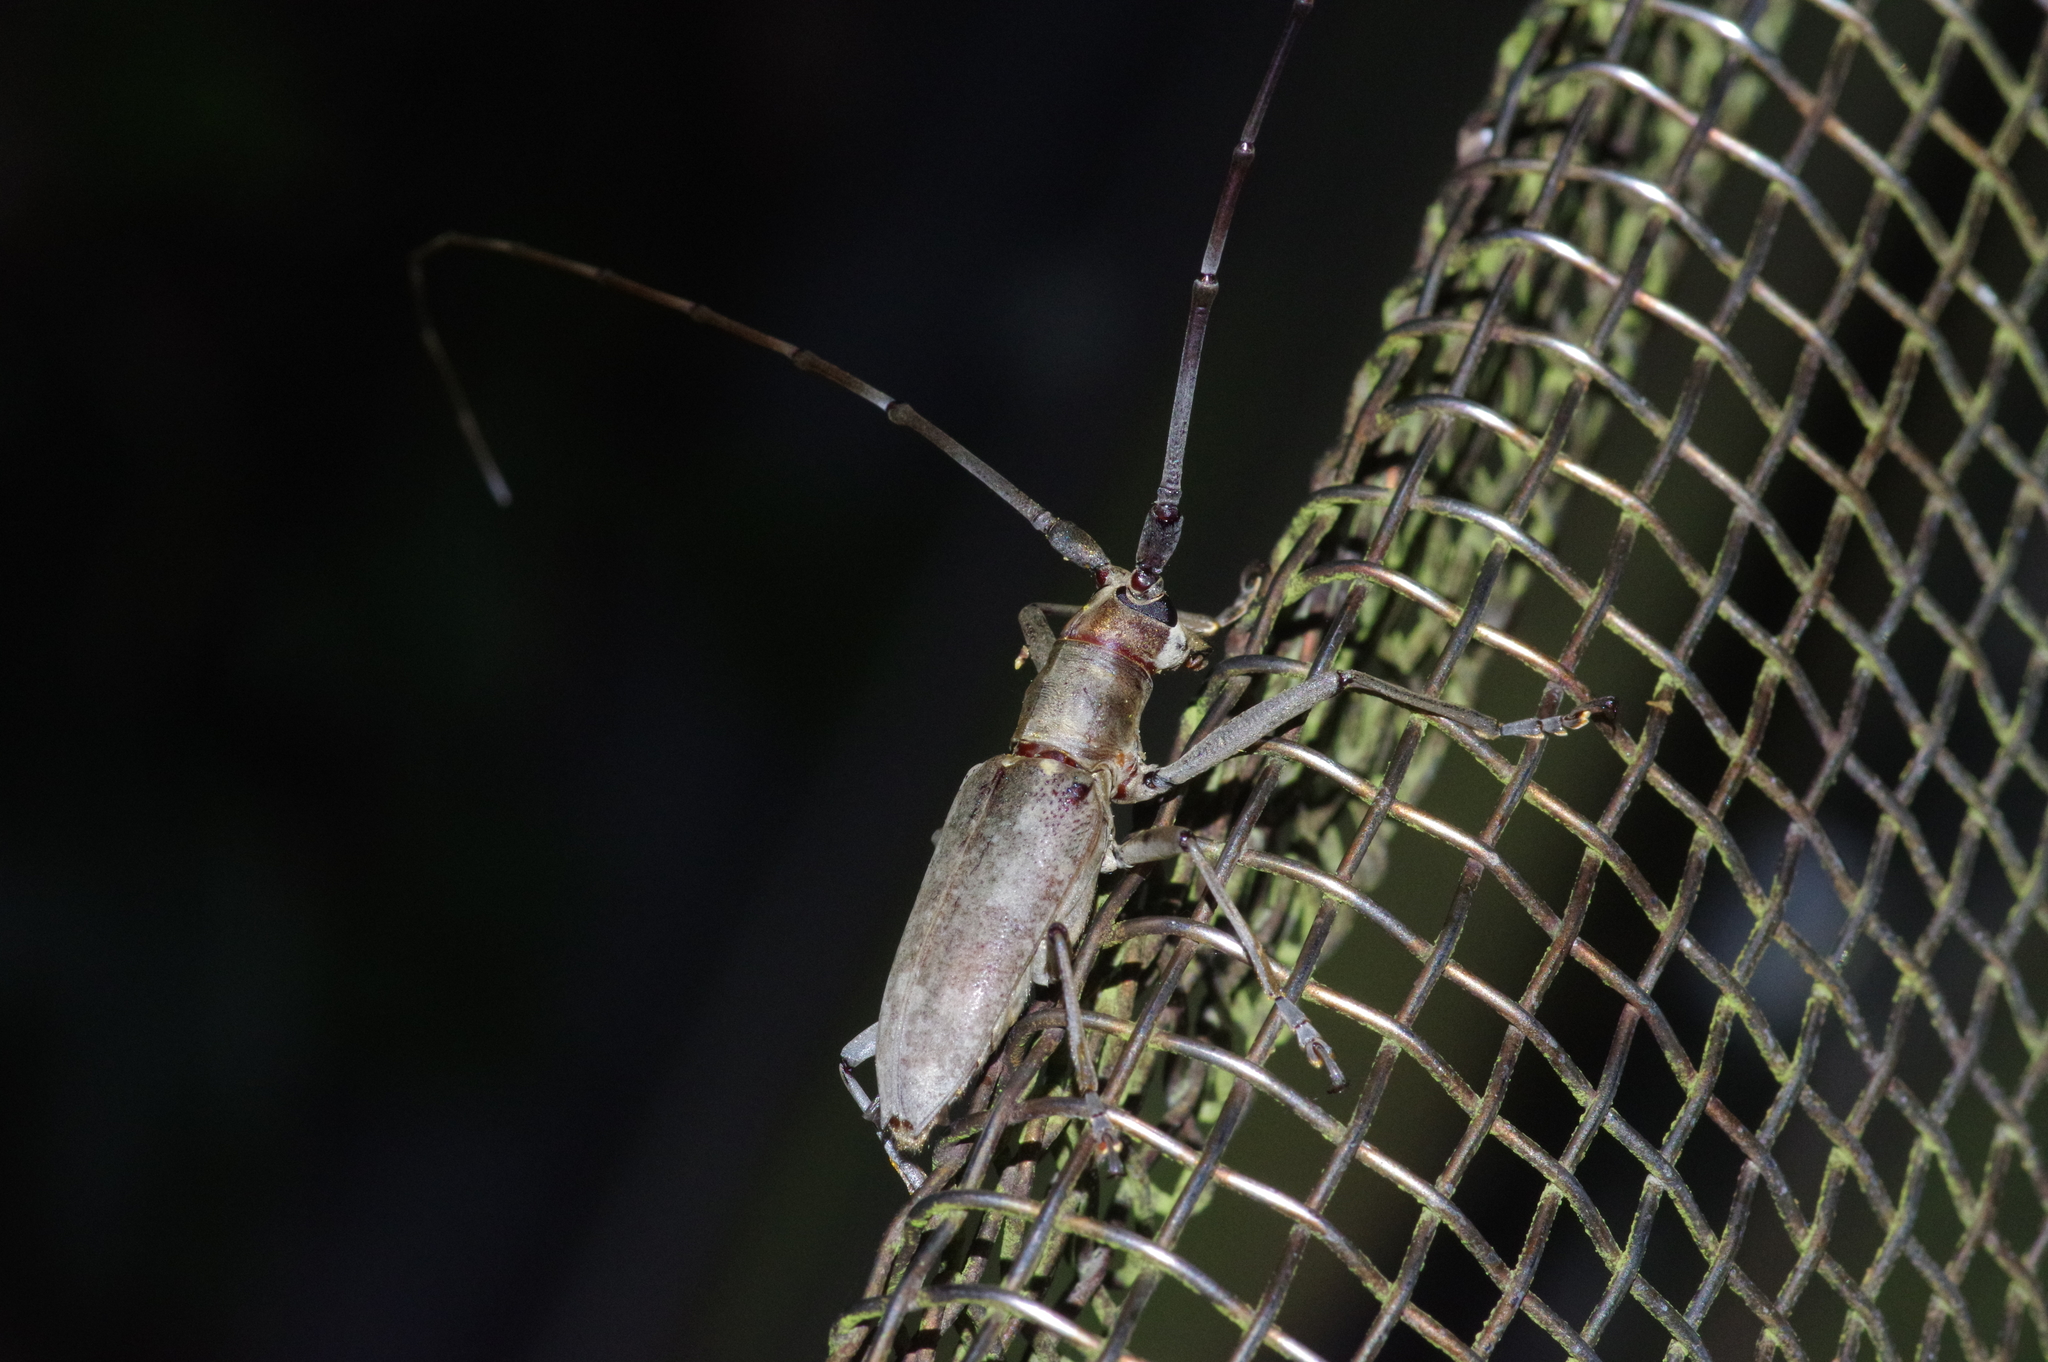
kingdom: Animalia
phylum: Arthropoda
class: Insecta
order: Coleoptera
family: Cerambycidae
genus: Psacothea
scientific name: Psacothea hilaris
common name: Yellow-spotted longicorn beetle
